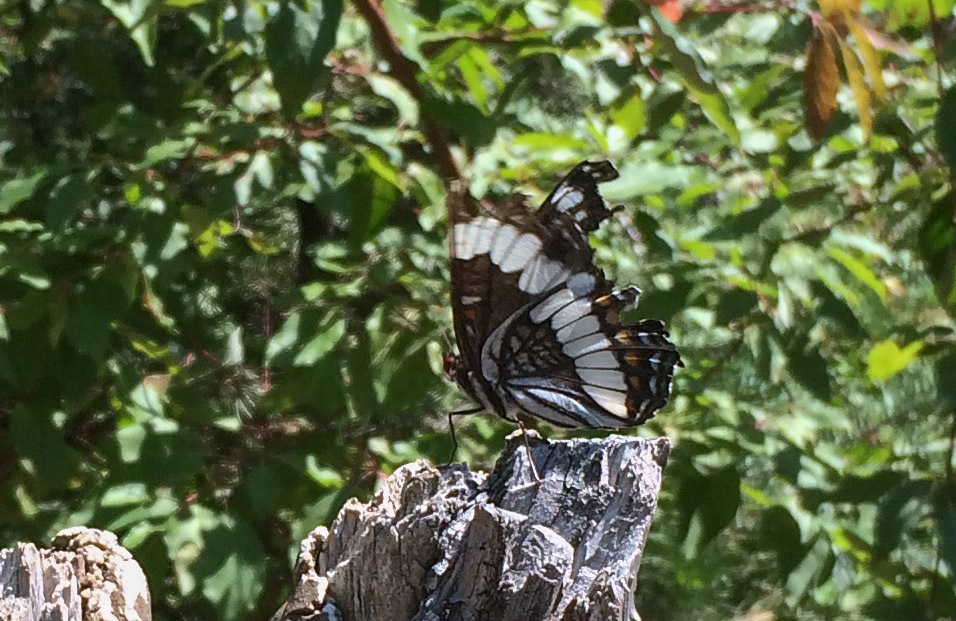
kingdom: Animalia
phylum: Arthropoda
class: Insecta
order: Lepidoptera
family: Nymphalidae
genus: Limenitis
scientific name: Limenitis weidemeyerii
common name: Weidemeyer's admiral
